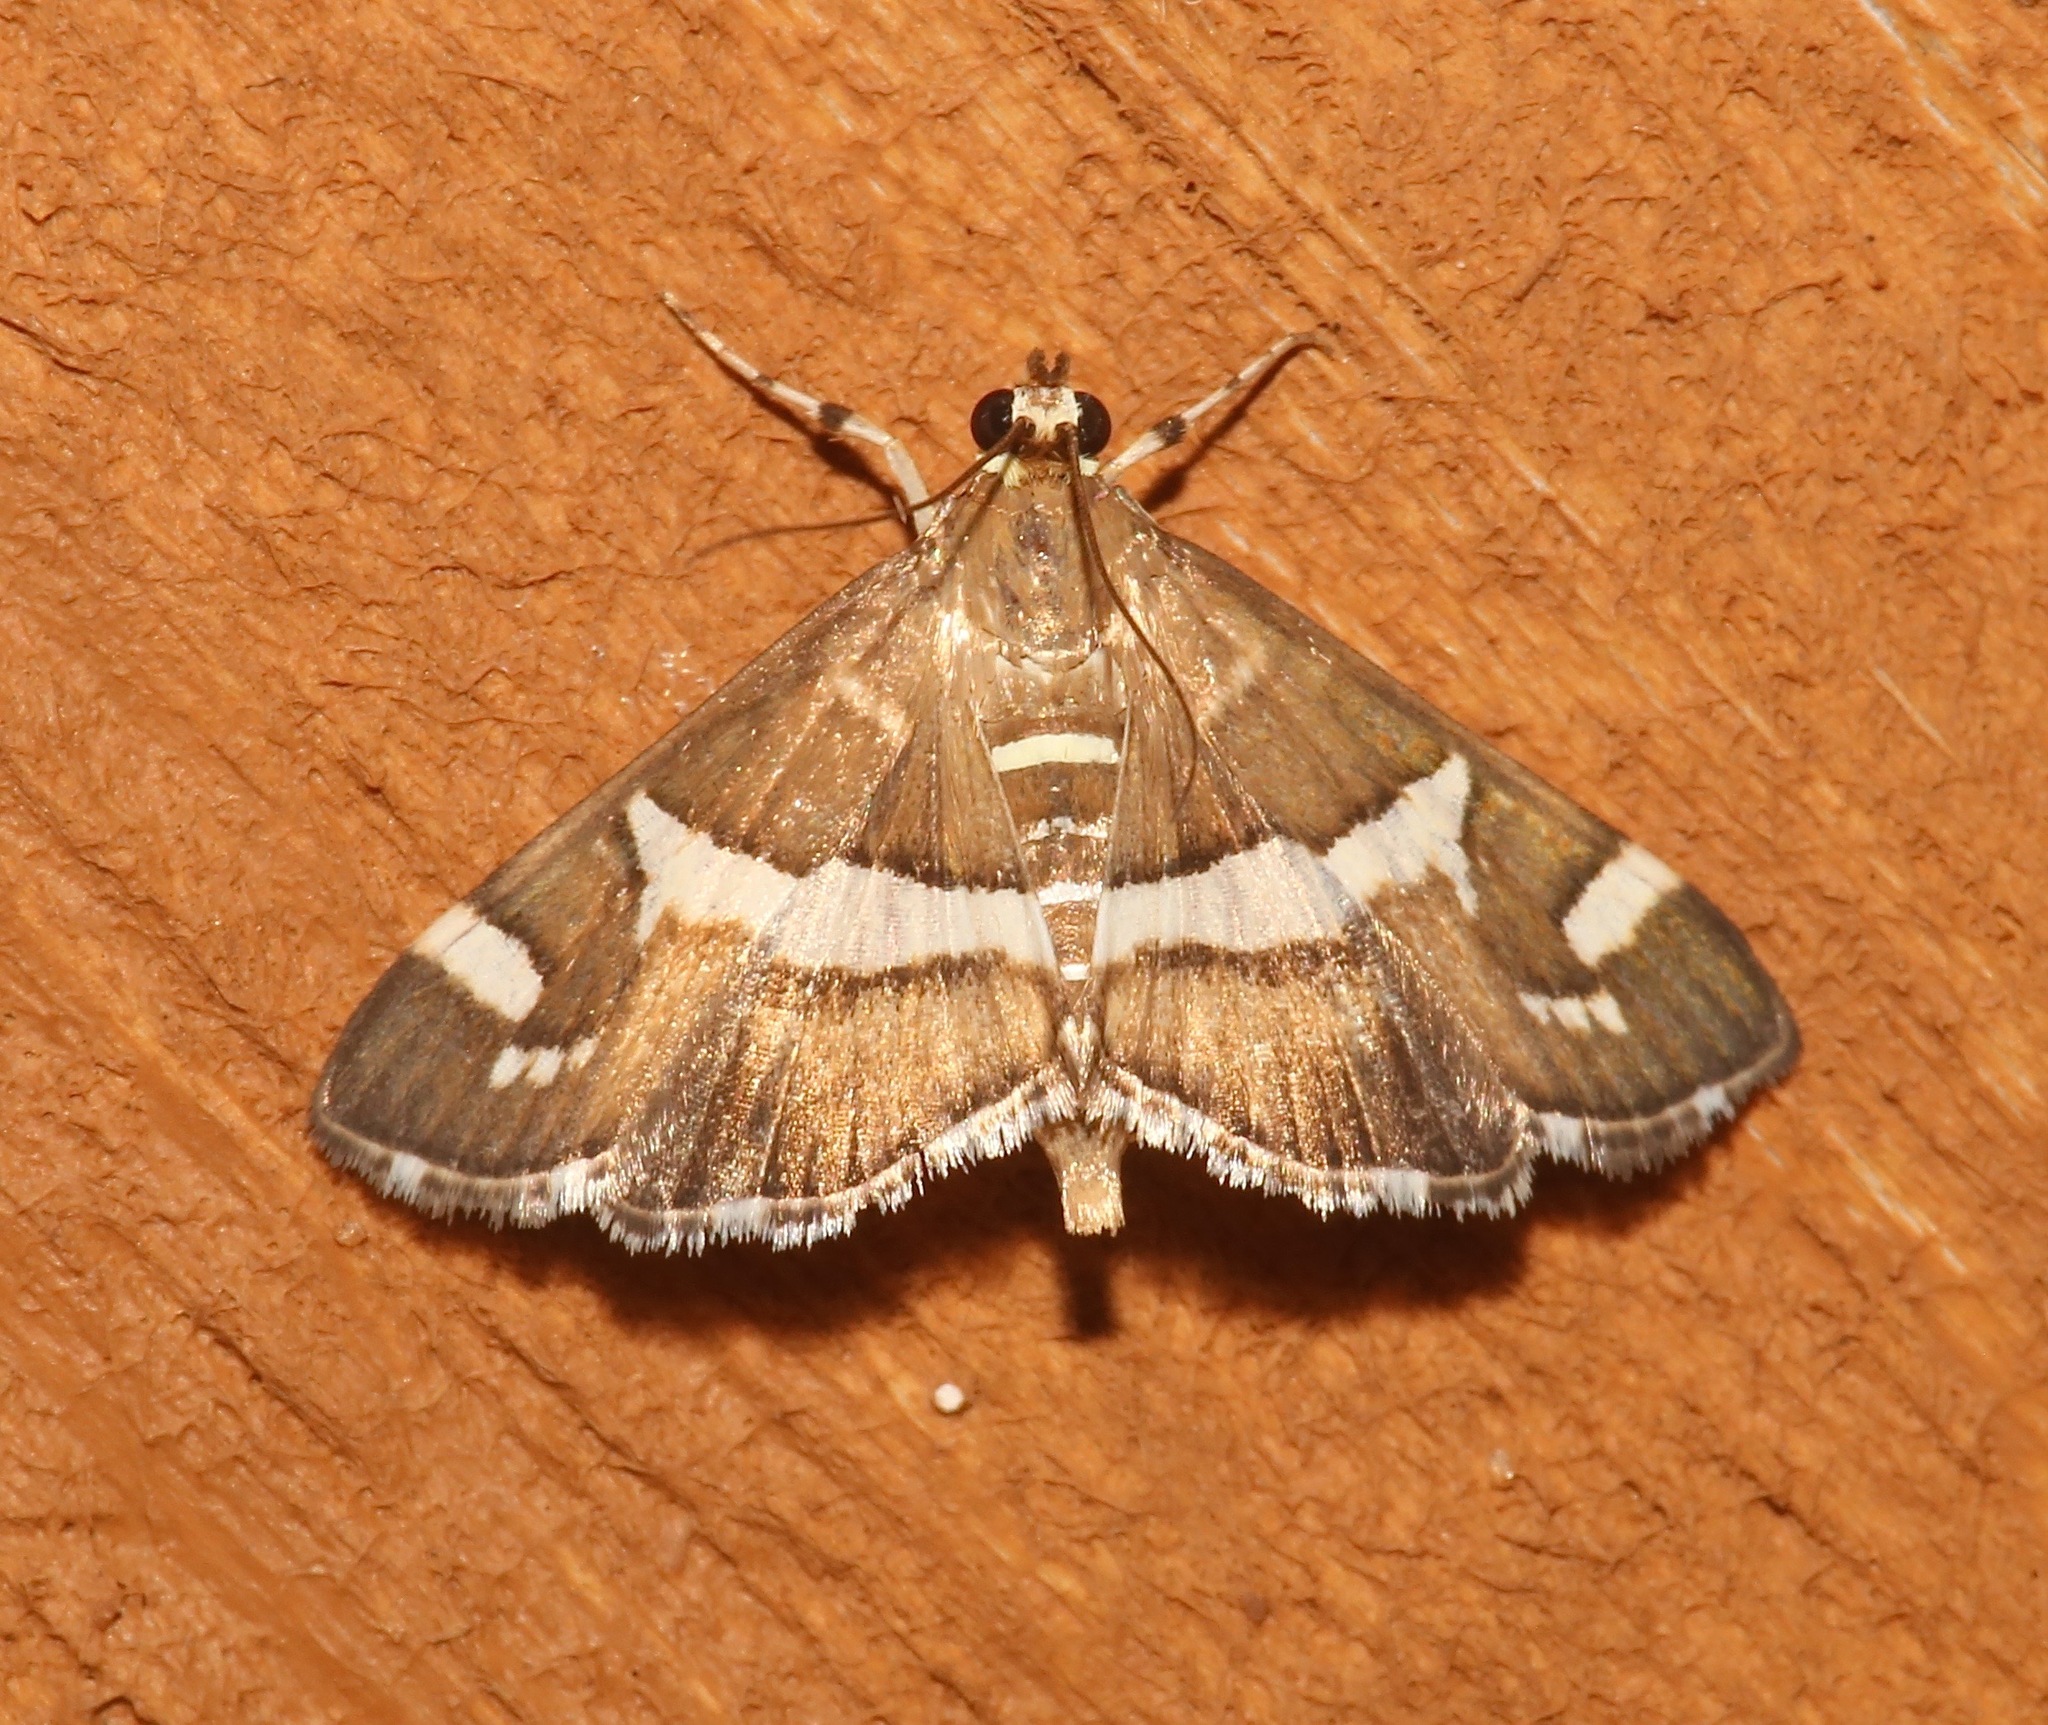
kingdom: Animalia
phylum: Arthropoda
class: Insecta
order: Lepidoptera
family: Crambidae
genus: Spoladea
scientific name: Spoladea recurvalis
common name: Beet webworm moth
